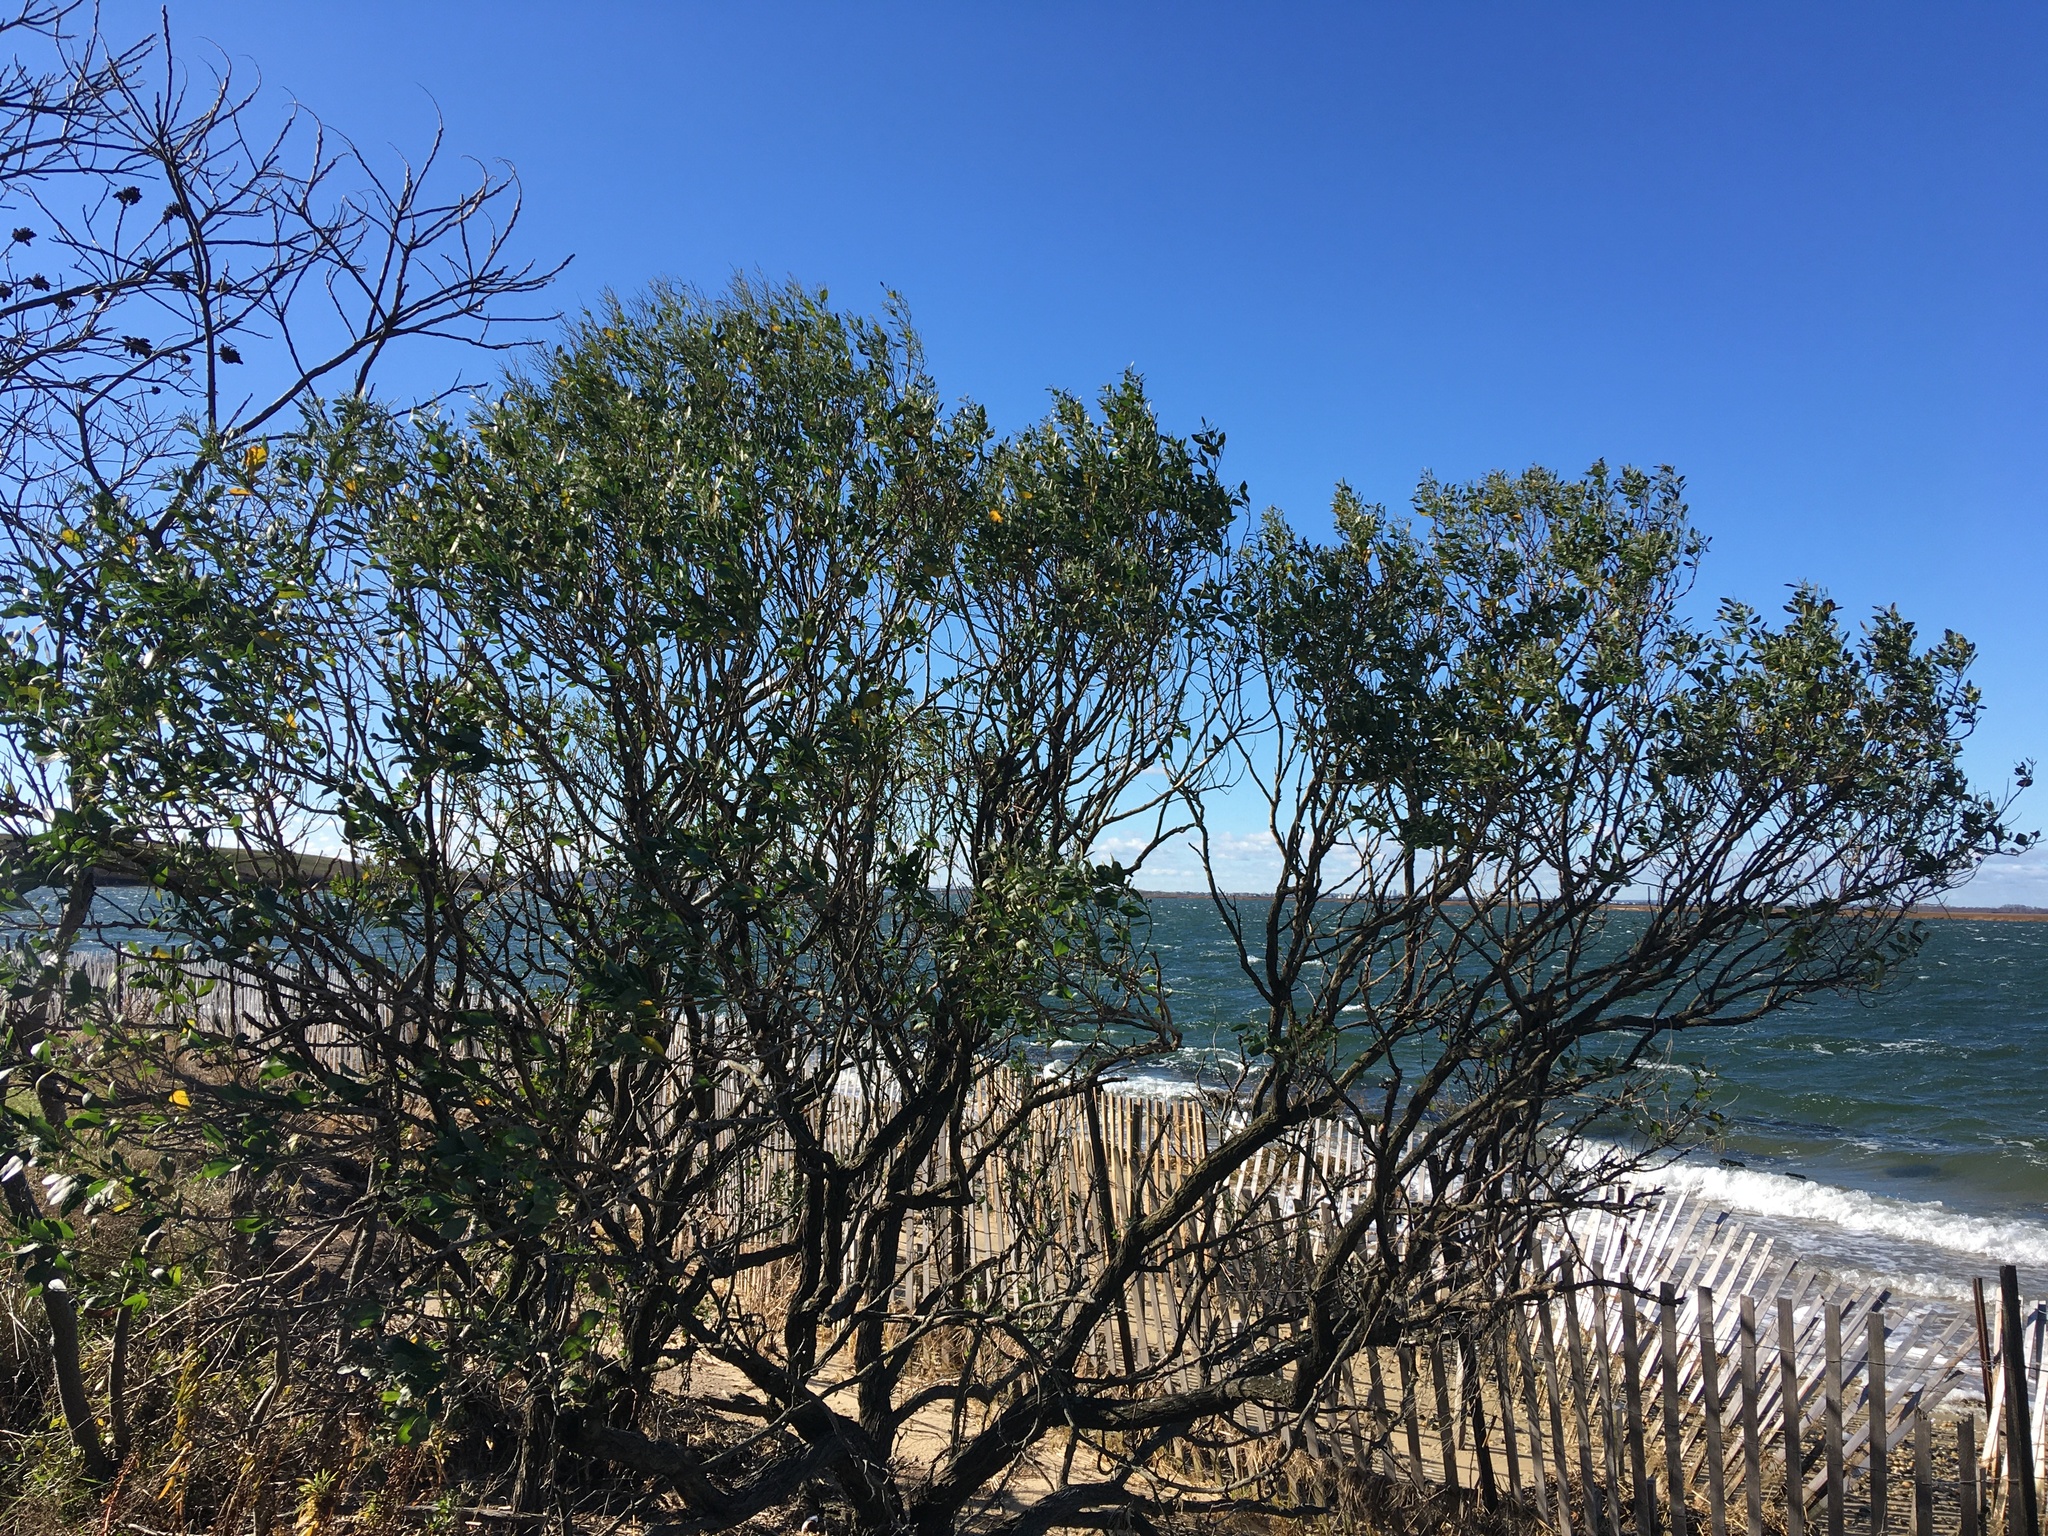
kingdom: Plantae
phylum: Tracheophyta
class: Magnoliopsida
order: Asterales
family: Asteraceae
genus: Baccharis
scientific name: Baccharis halimifolia
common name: Eastern baccharis
